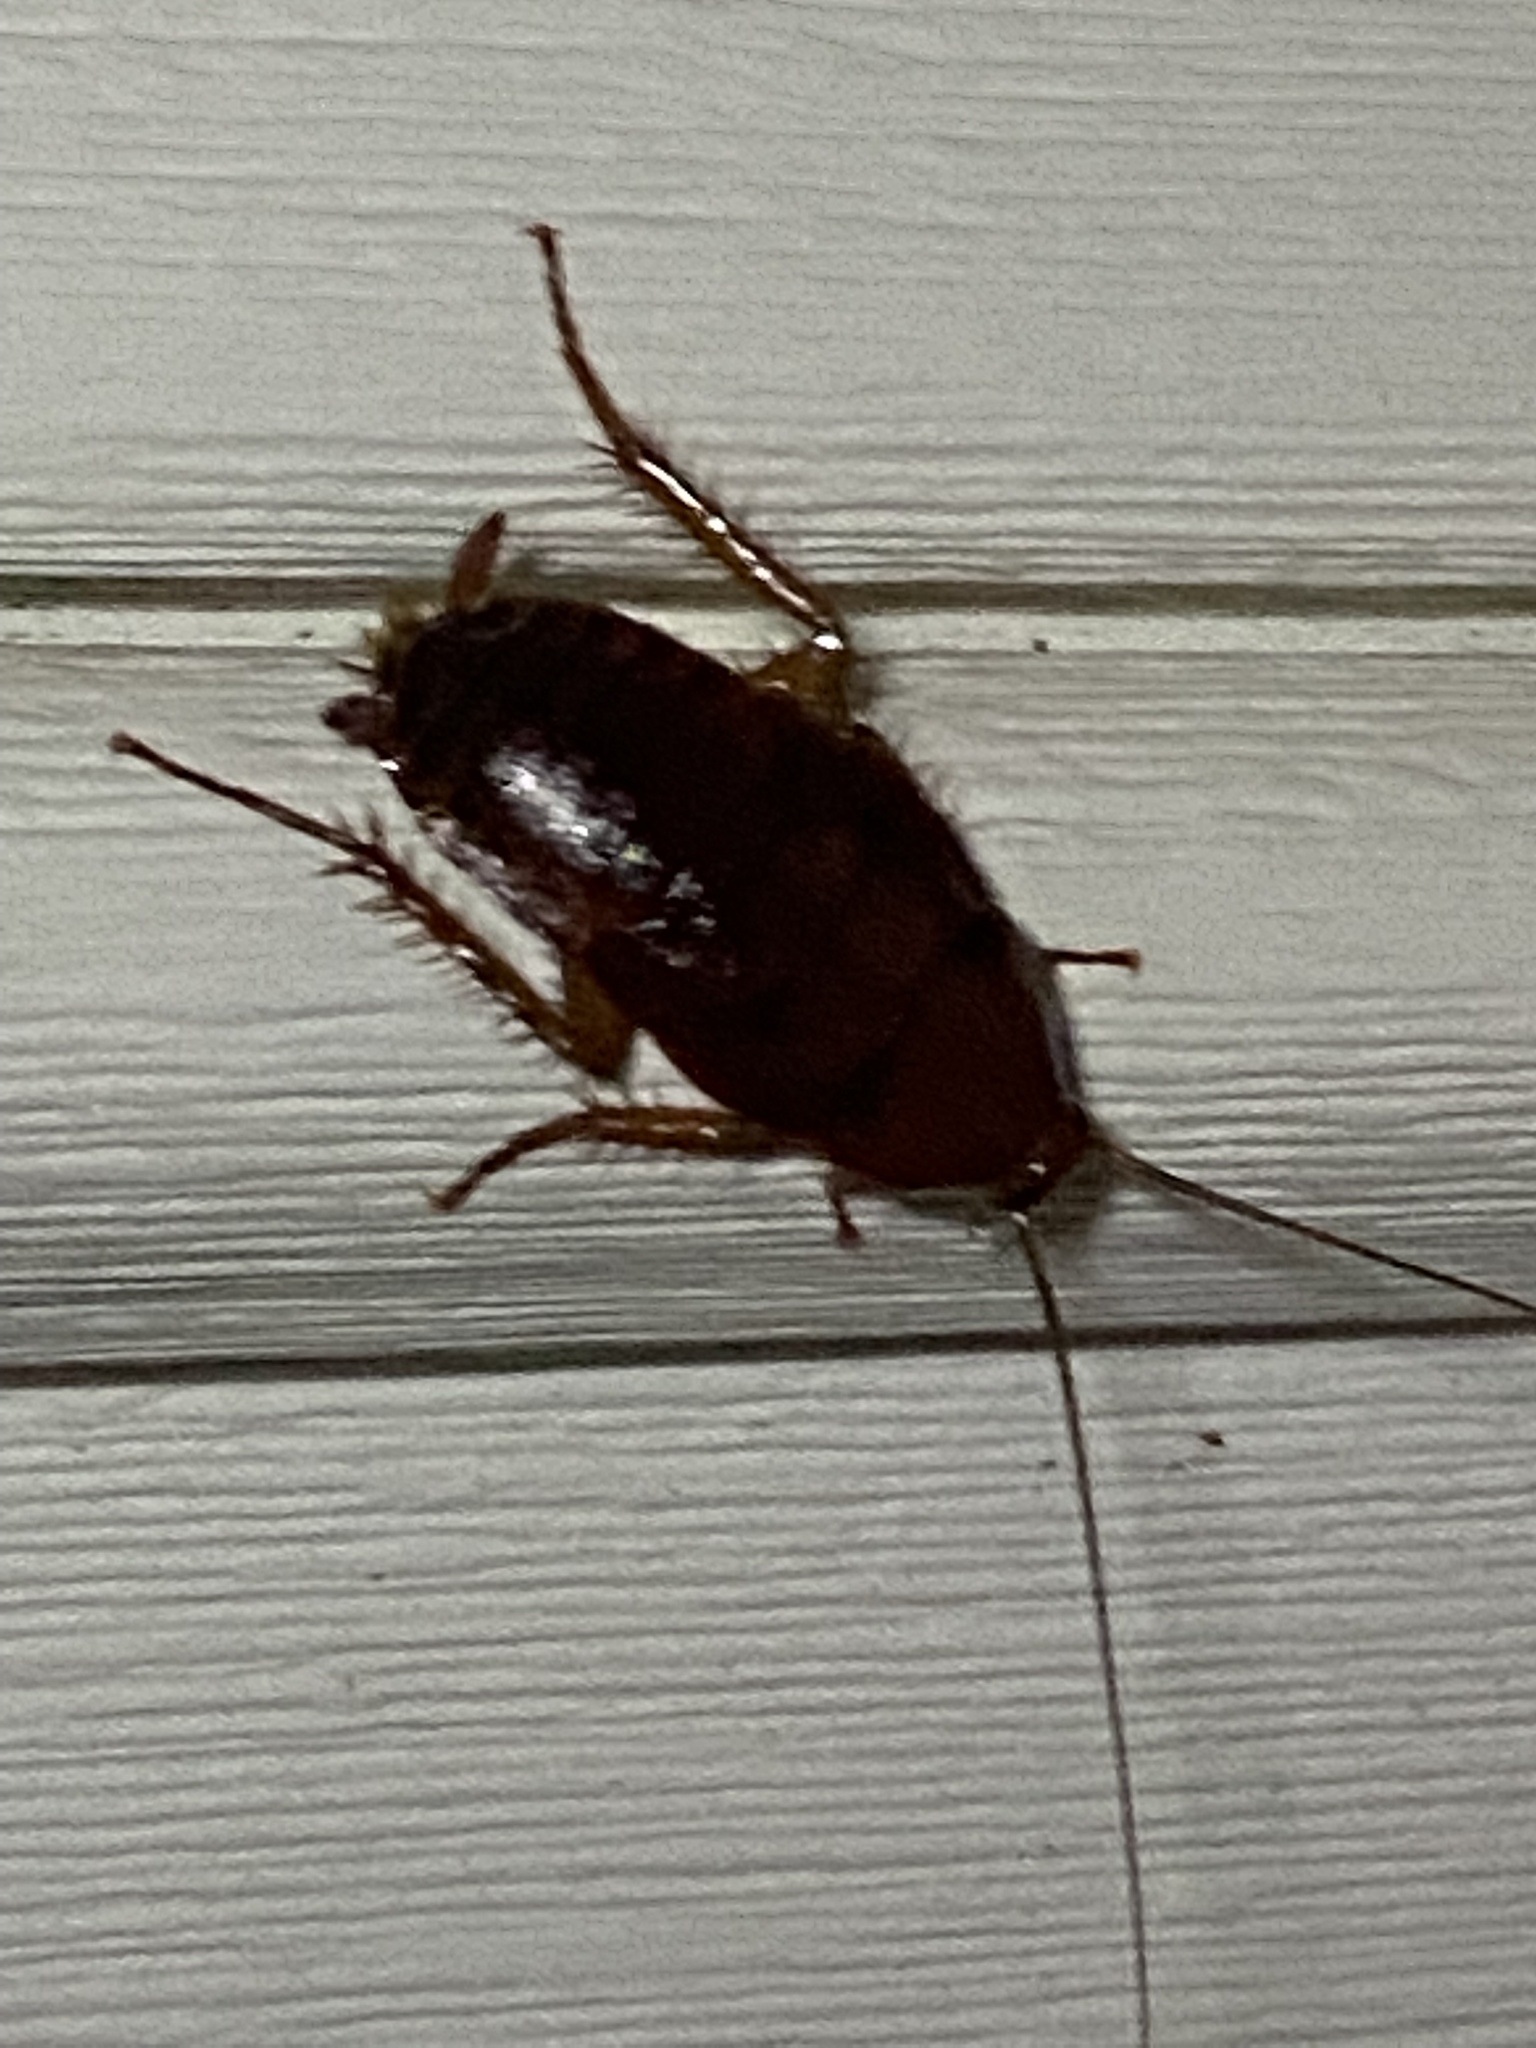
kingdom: Animalia
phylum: Arthropoda
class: Insecta
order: Blattodea
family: Blattidae
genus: Periplaneta
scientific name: Periplaneta fuliginosa
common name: Smokeybrown cockroad
